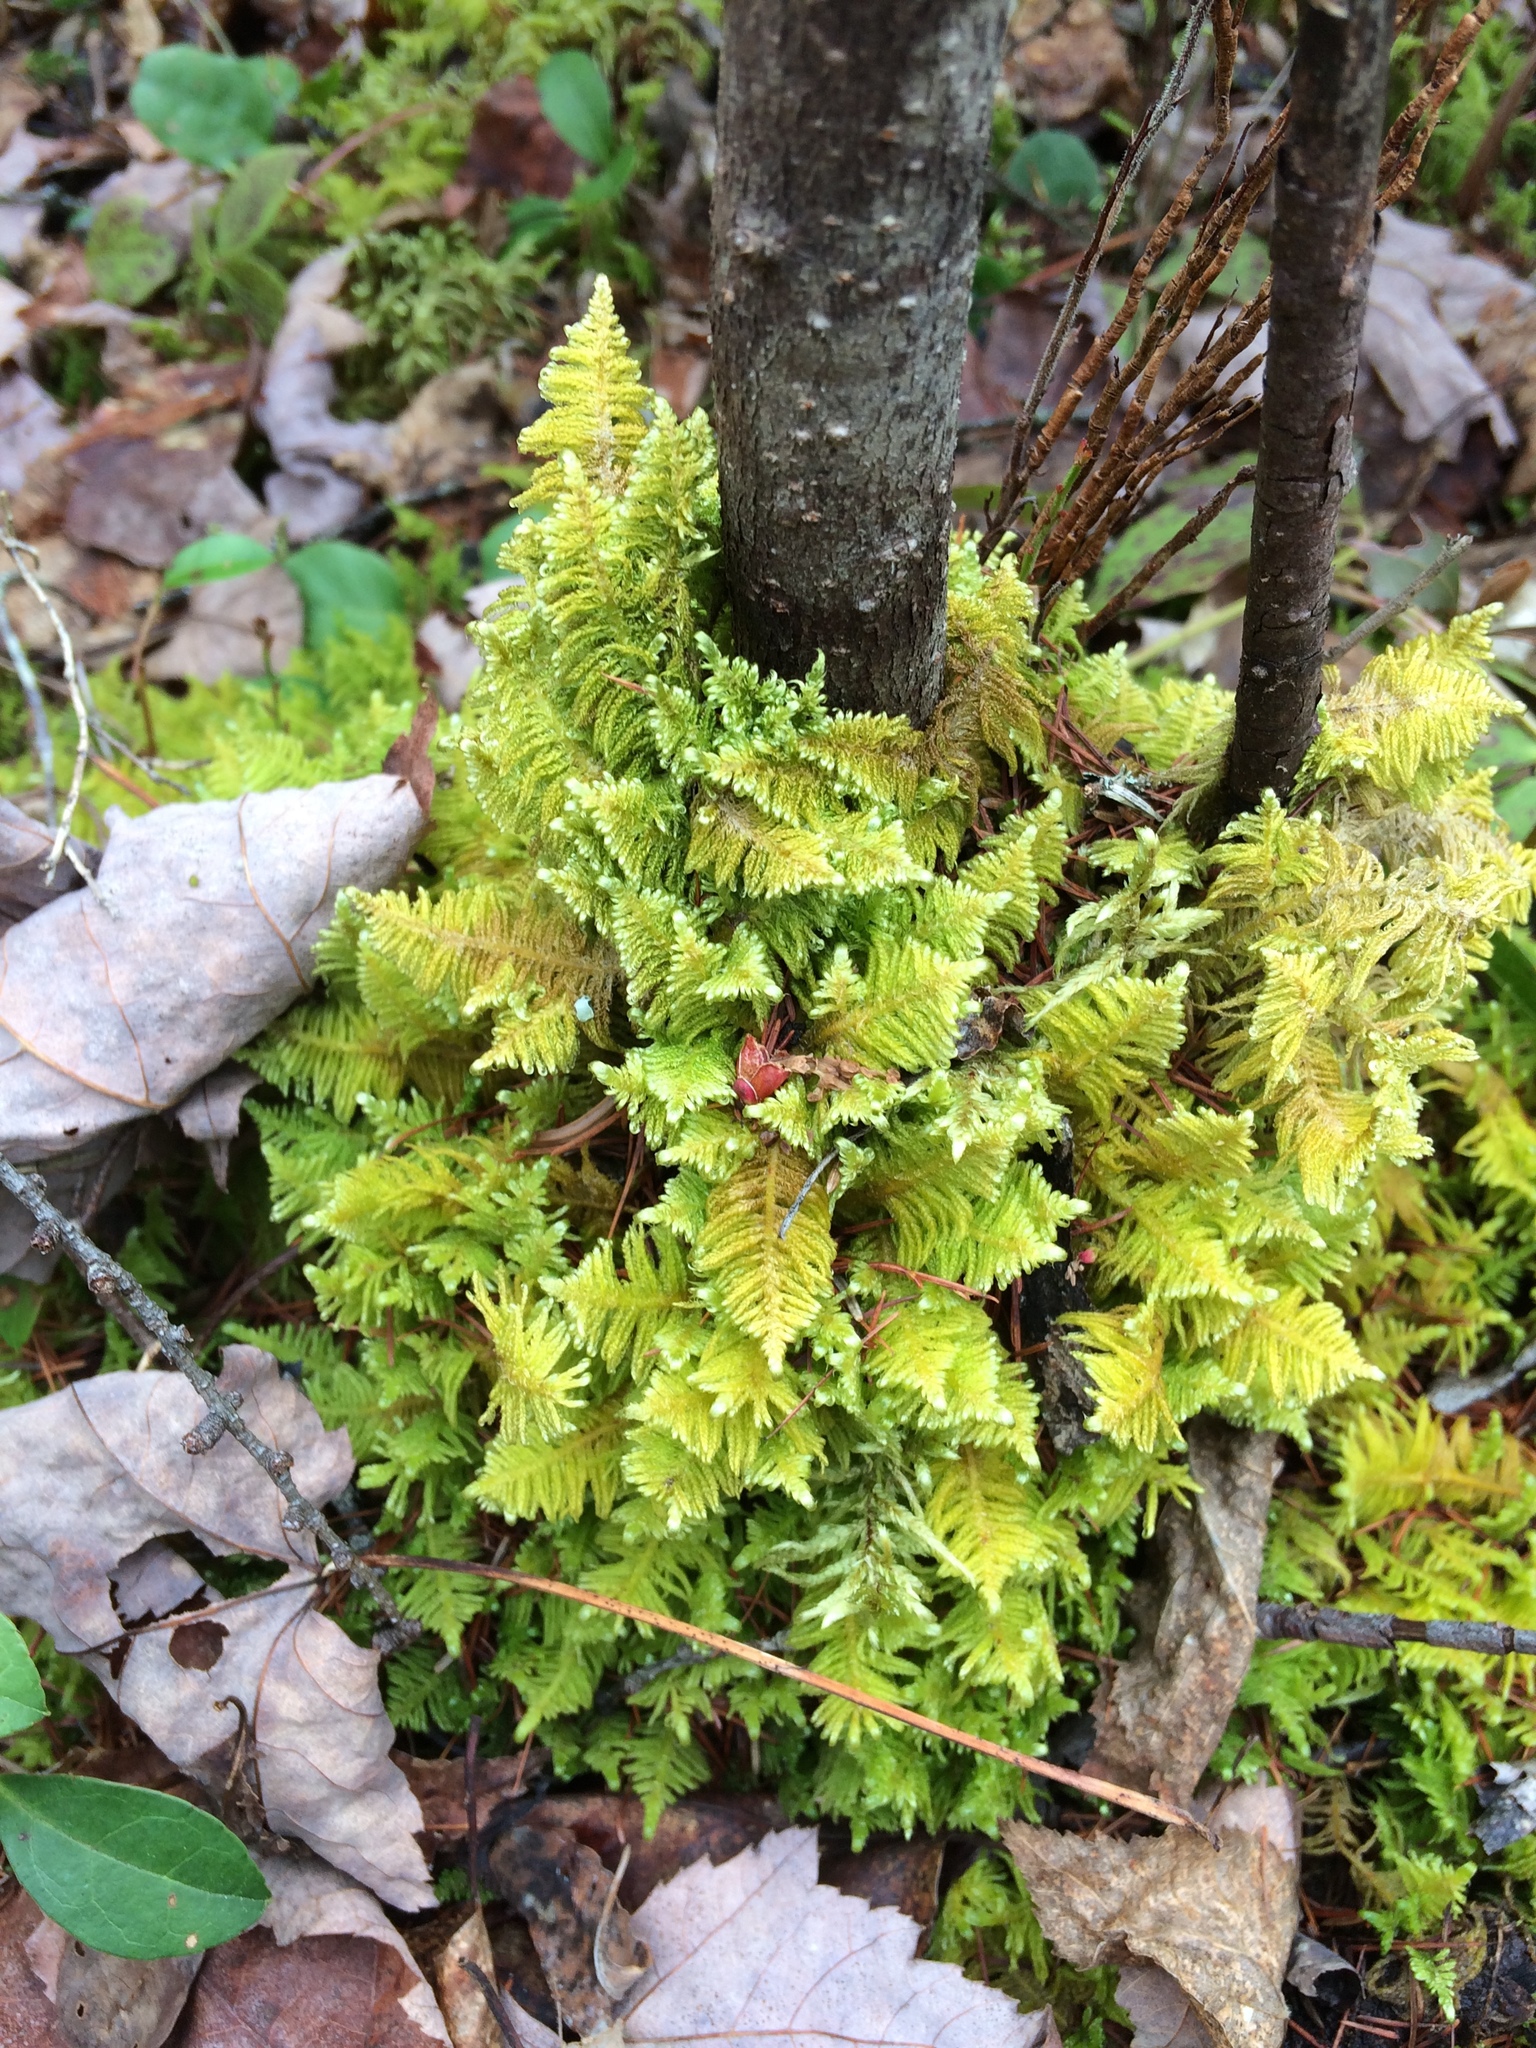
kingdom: Plantae
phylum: Bryophyta
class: Bryopsida
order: Hypnales
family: Pylaisiaceae
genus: Ptilium
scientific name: Ptilium crista-castrensis
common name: Knight's plume moss
